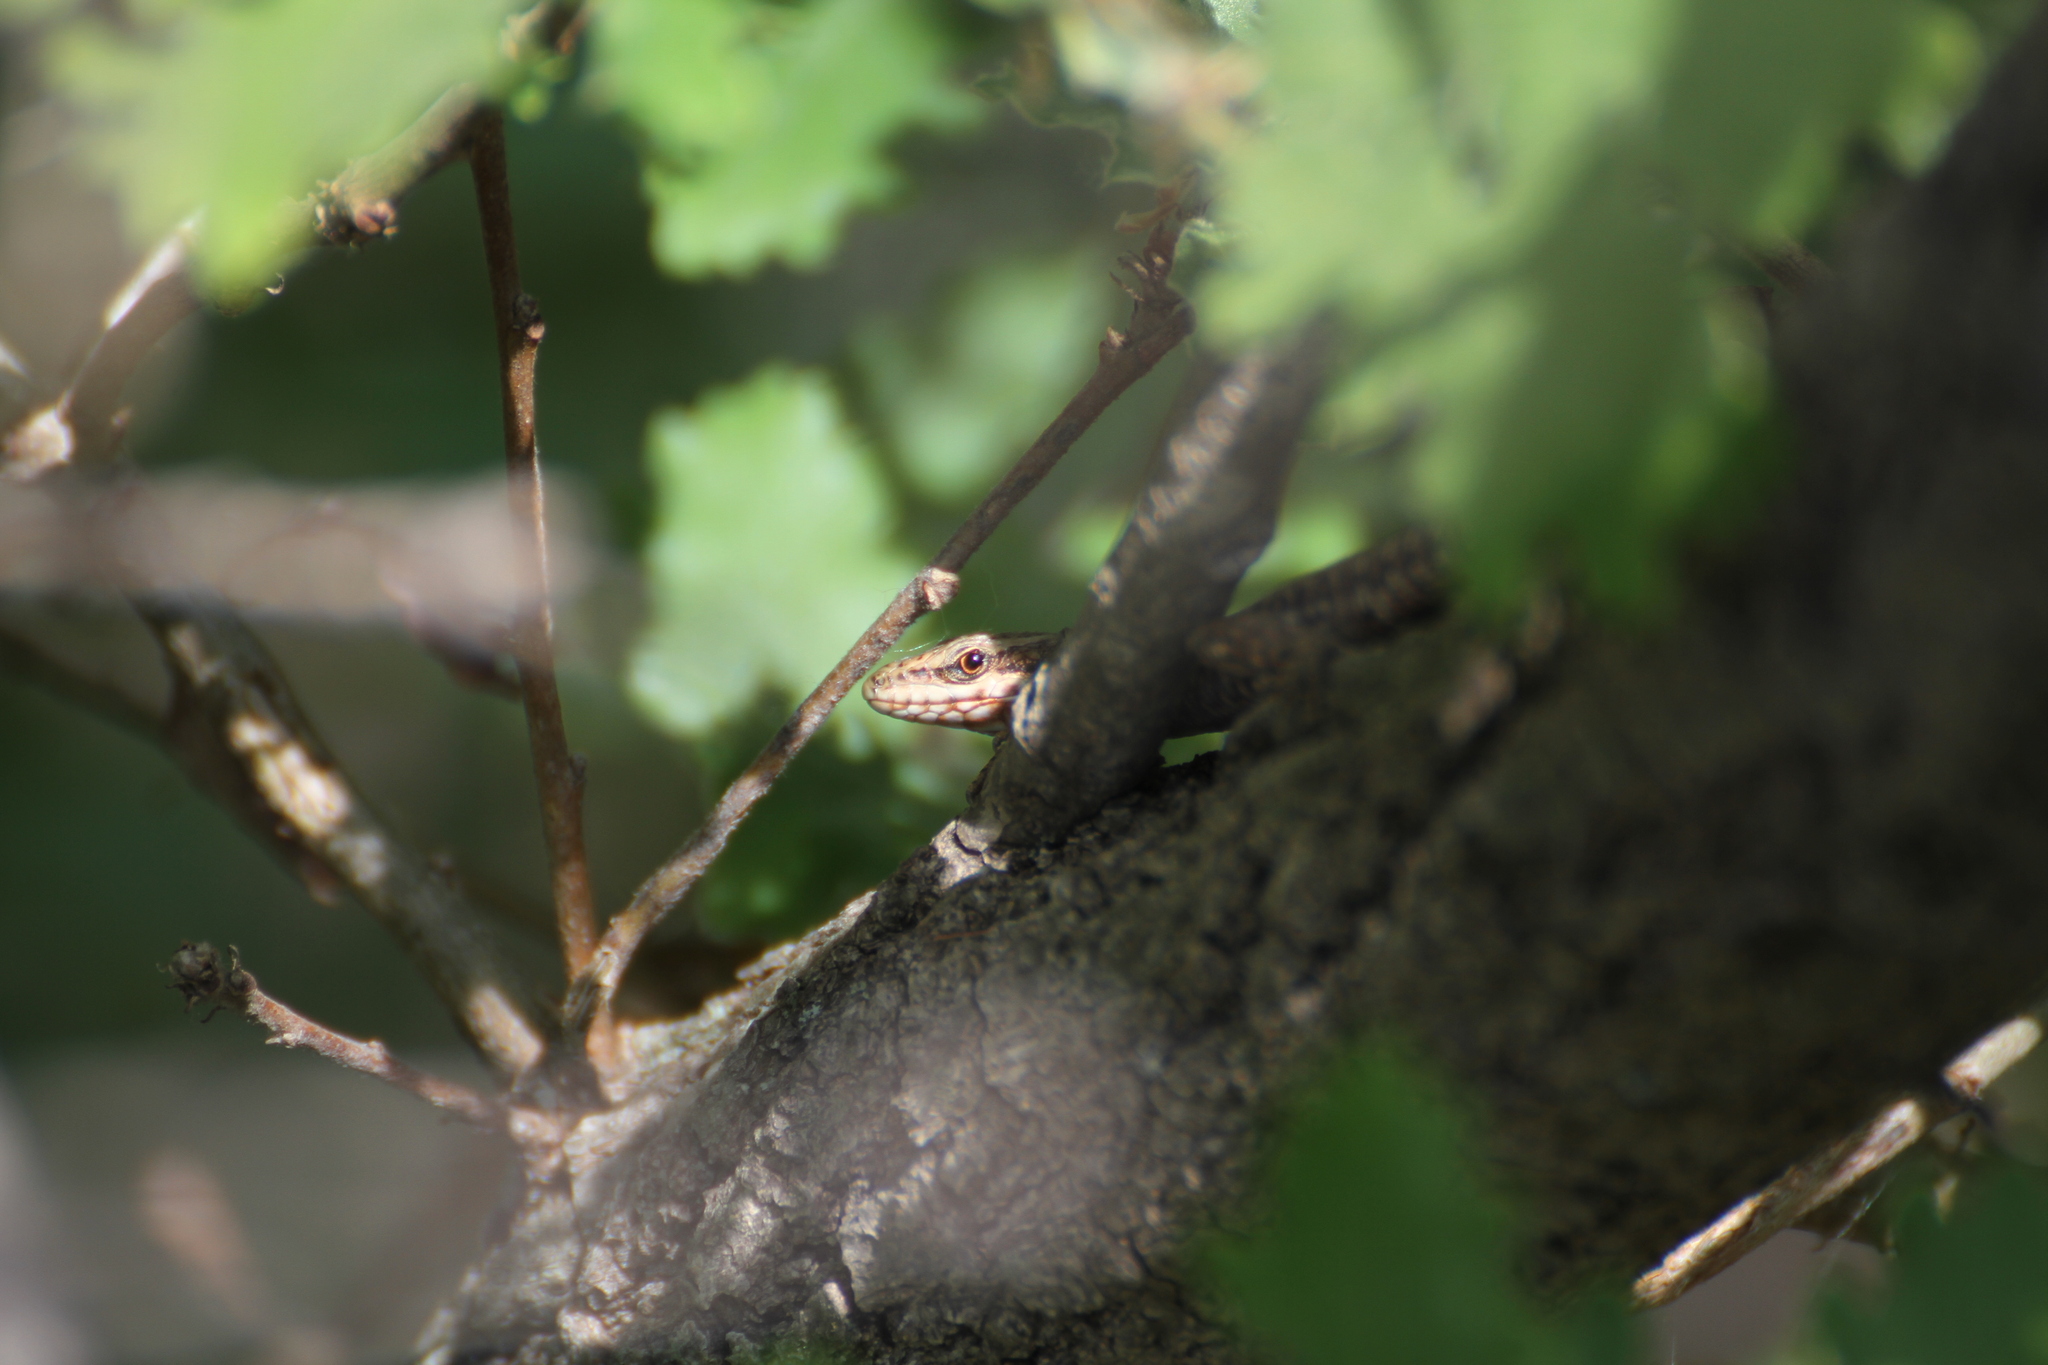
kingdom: Animalia
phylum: Chordata
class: Squamata
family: Lacertidae
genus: Podarcis
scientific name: Podarcis muralis
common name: Common wall lizard
